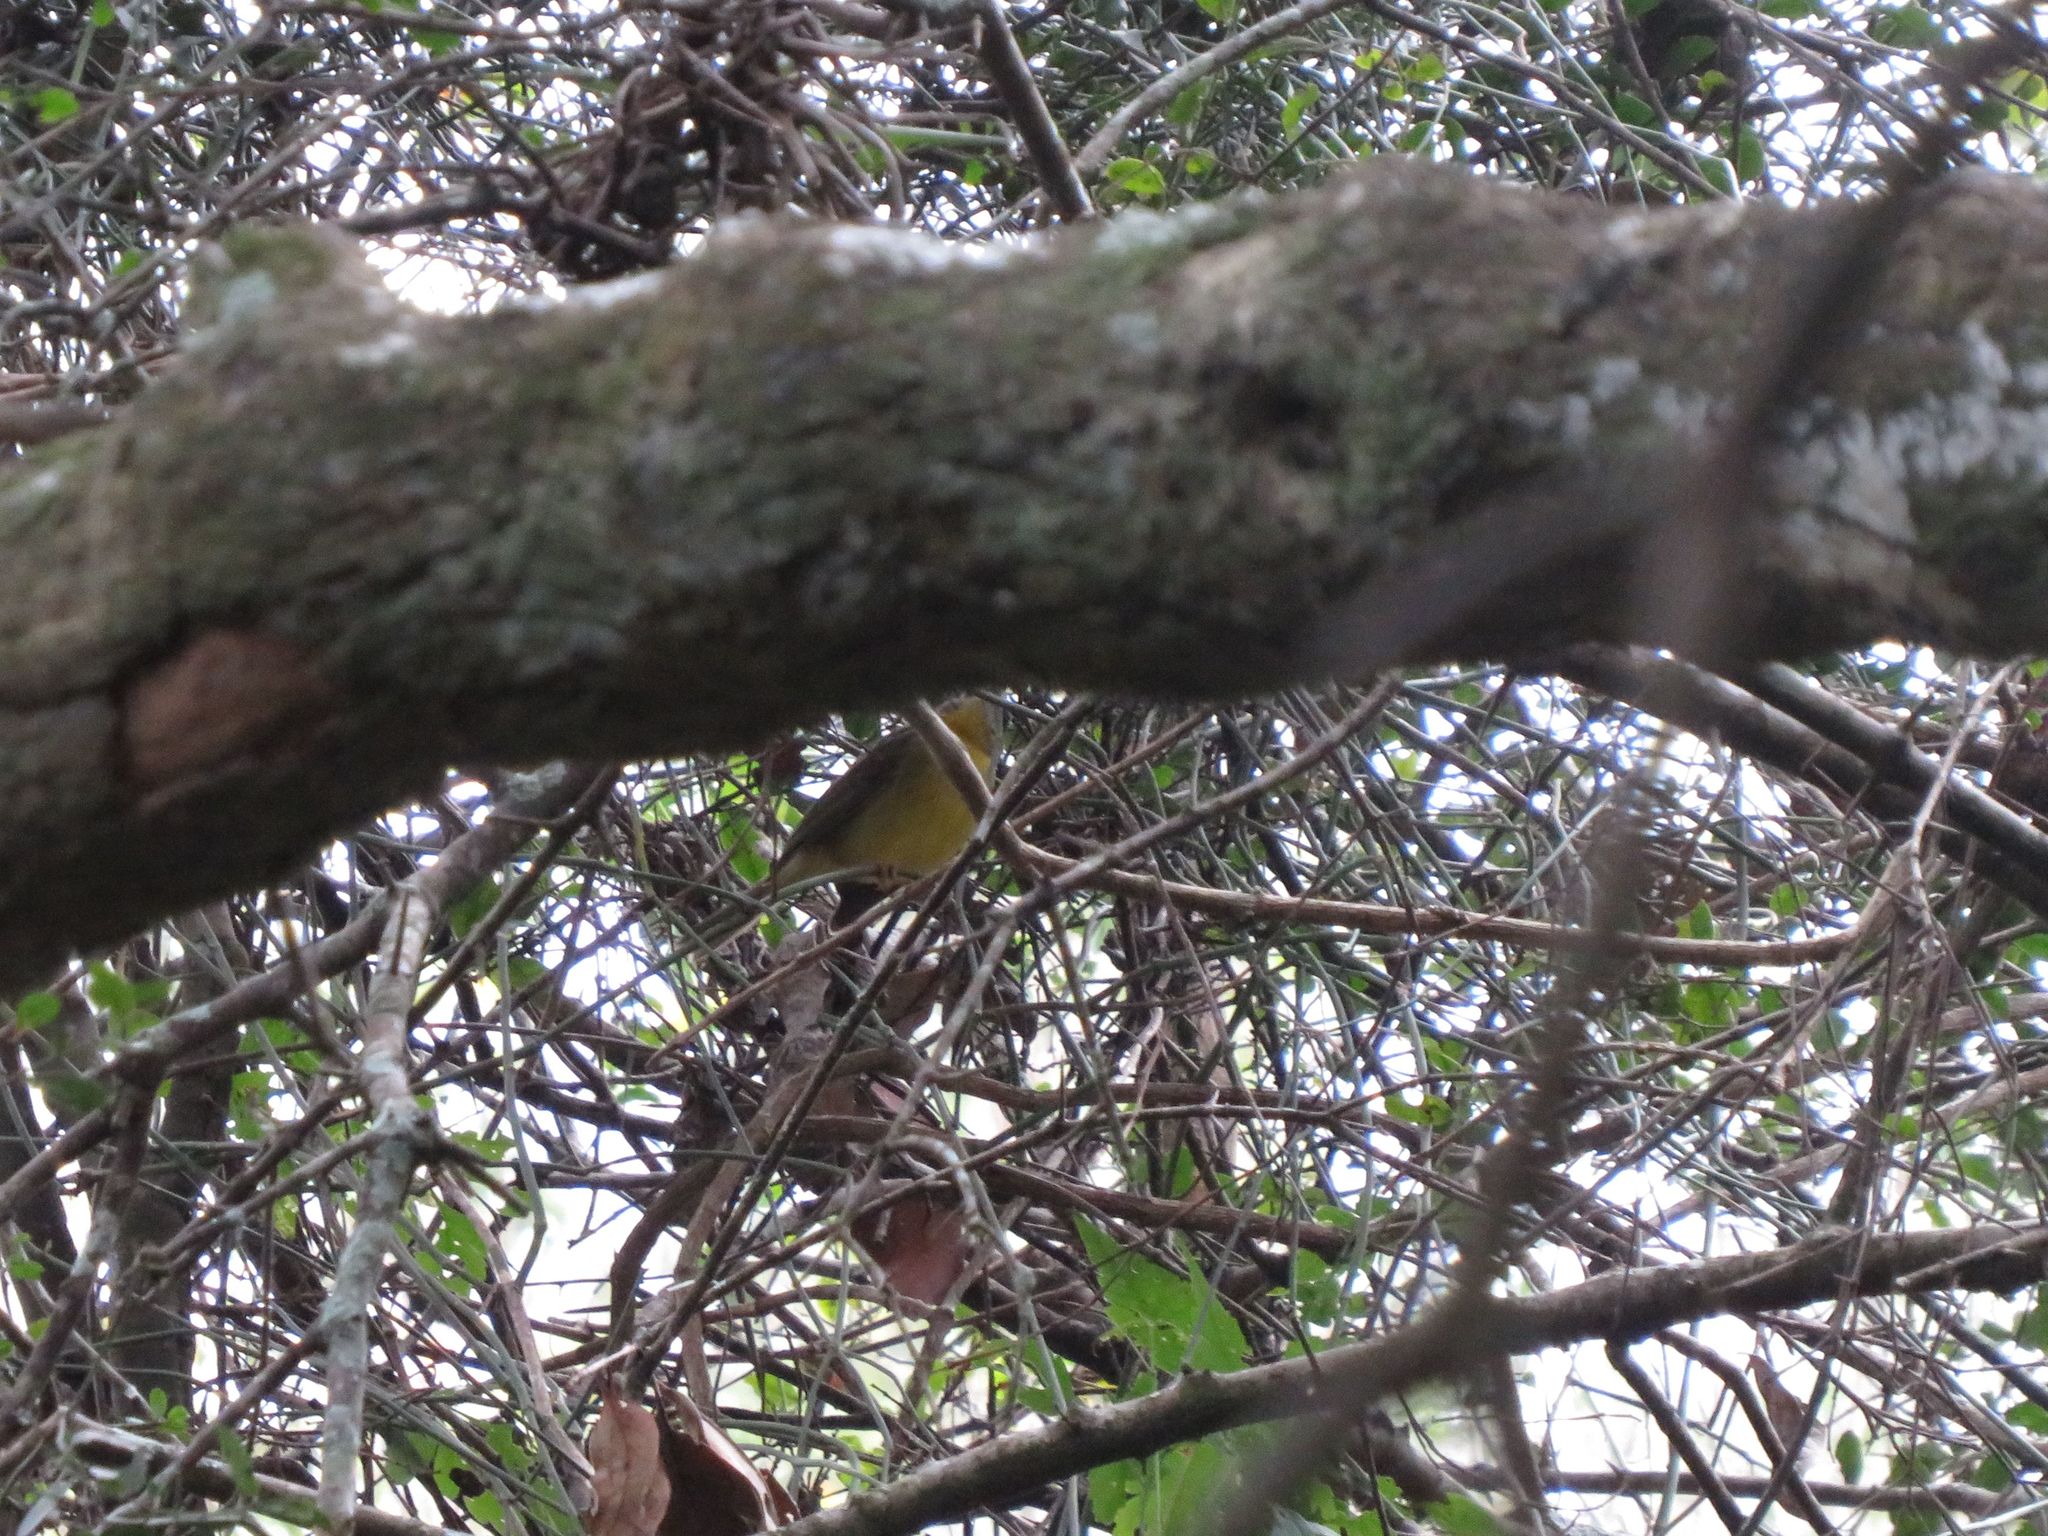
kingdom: Animalia
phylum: Chordata
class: Aves
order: Passeriformes
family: Parulidae
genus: Basileuterus
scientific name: Basileuterus culicivorus
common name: Golden-crowned warbler
